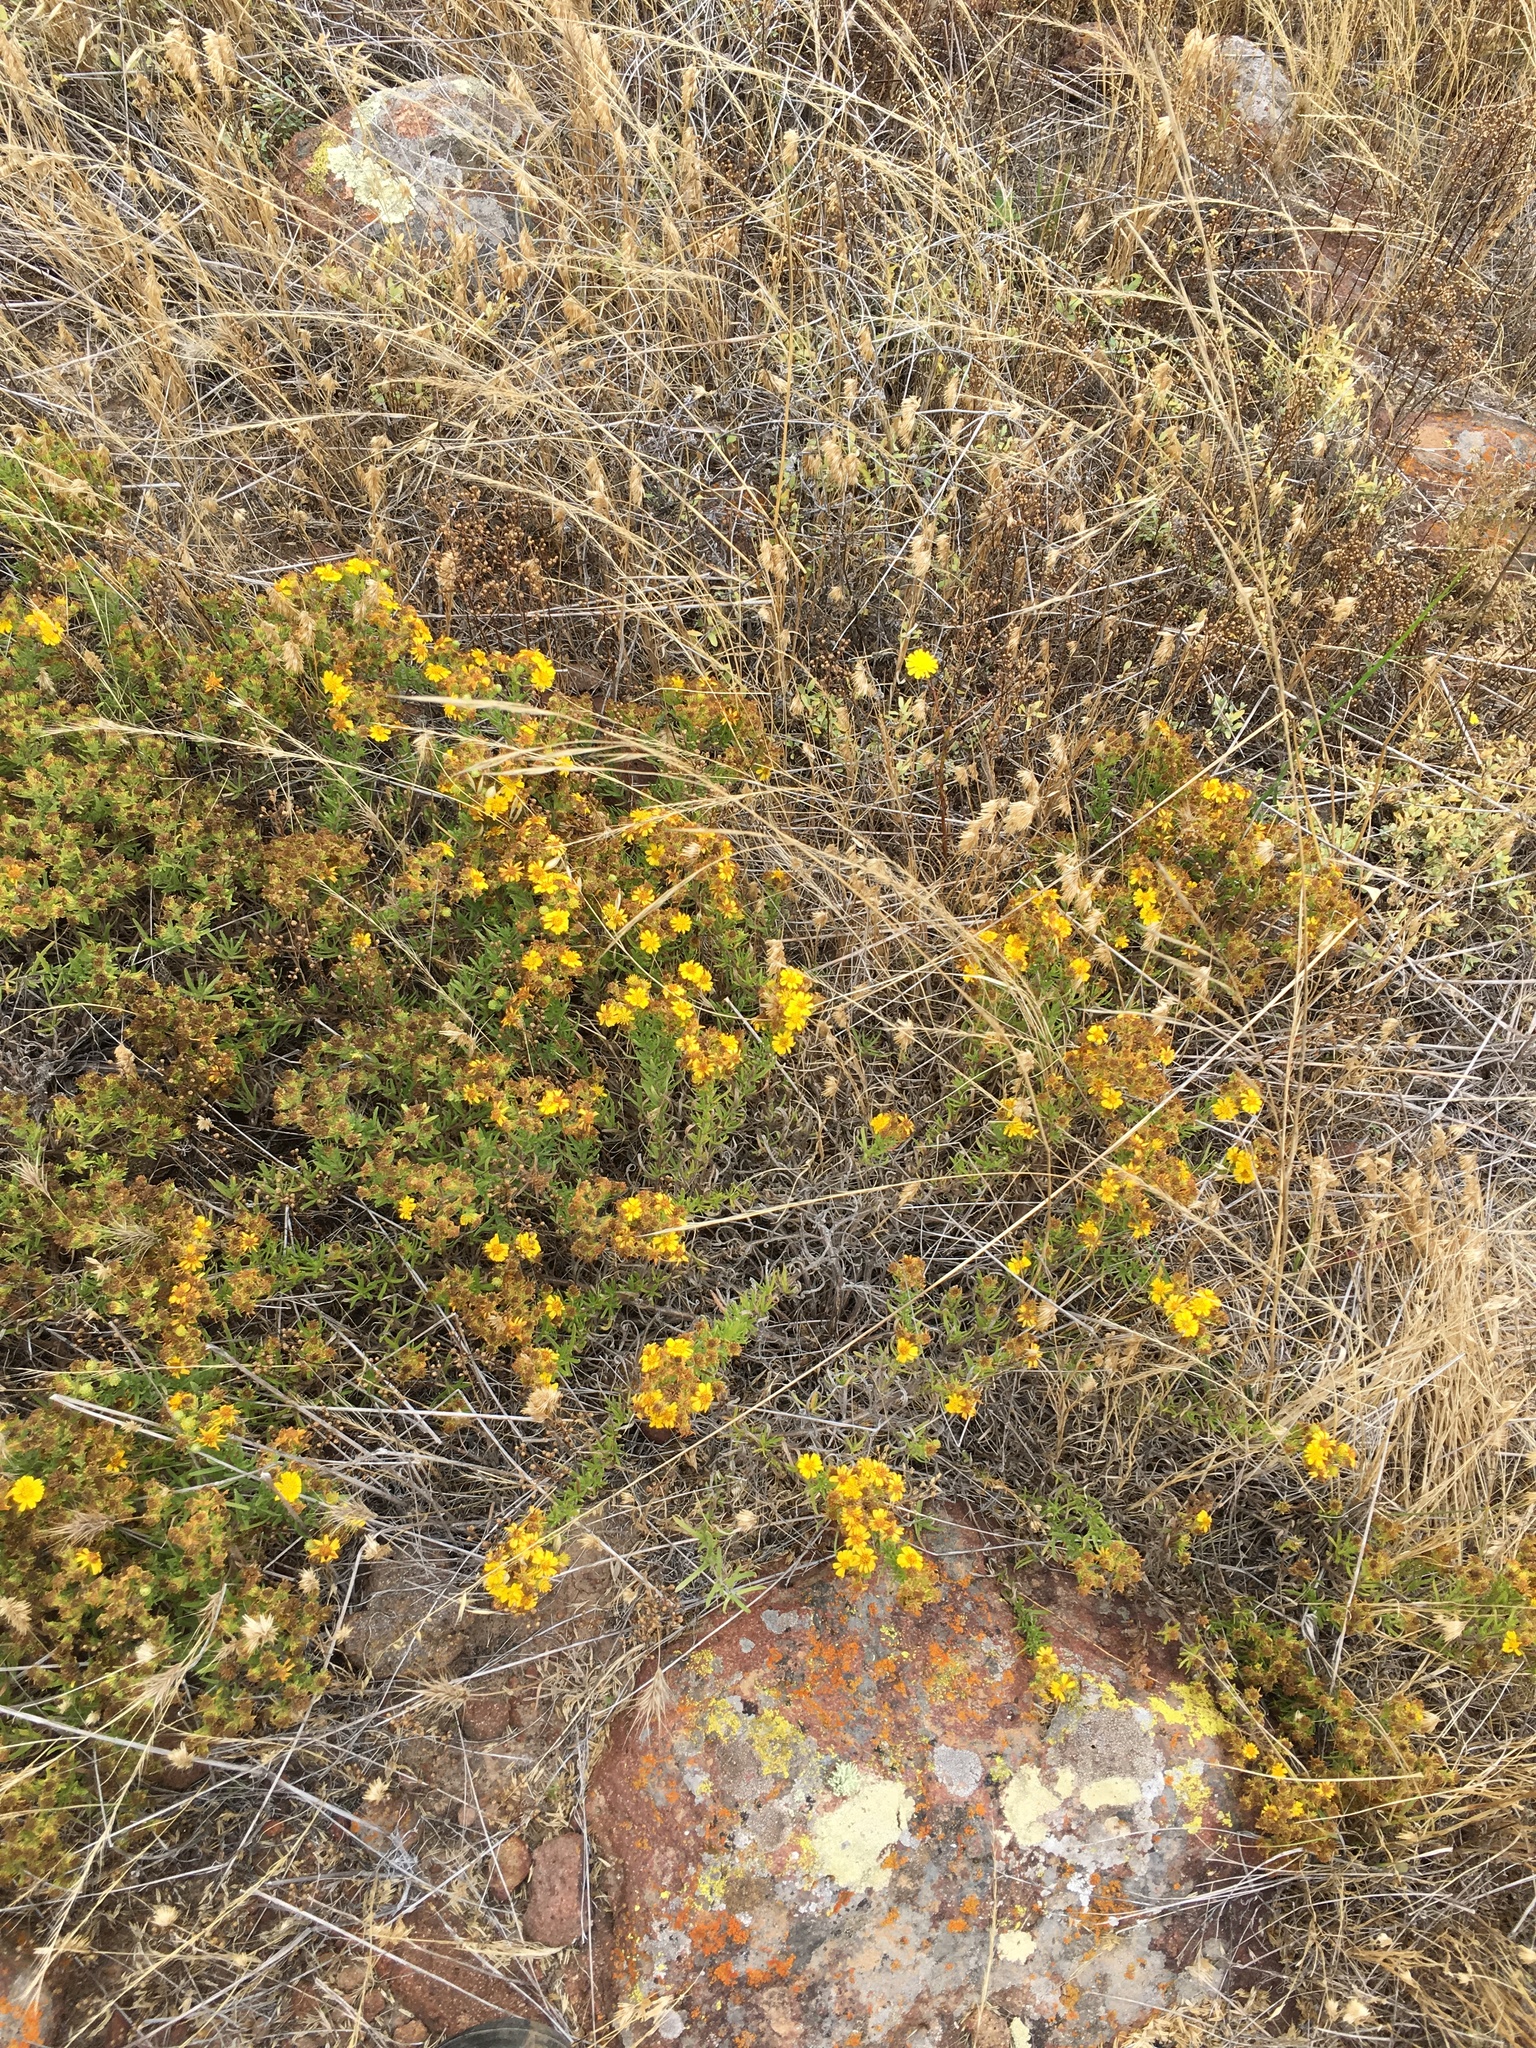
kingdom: Plantae
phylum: Tracheophyta
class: Magnoliopsida
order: Asterales
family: Asteraceae
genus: Deinandra
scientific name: Deinandra clementina
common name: Island tarplant
